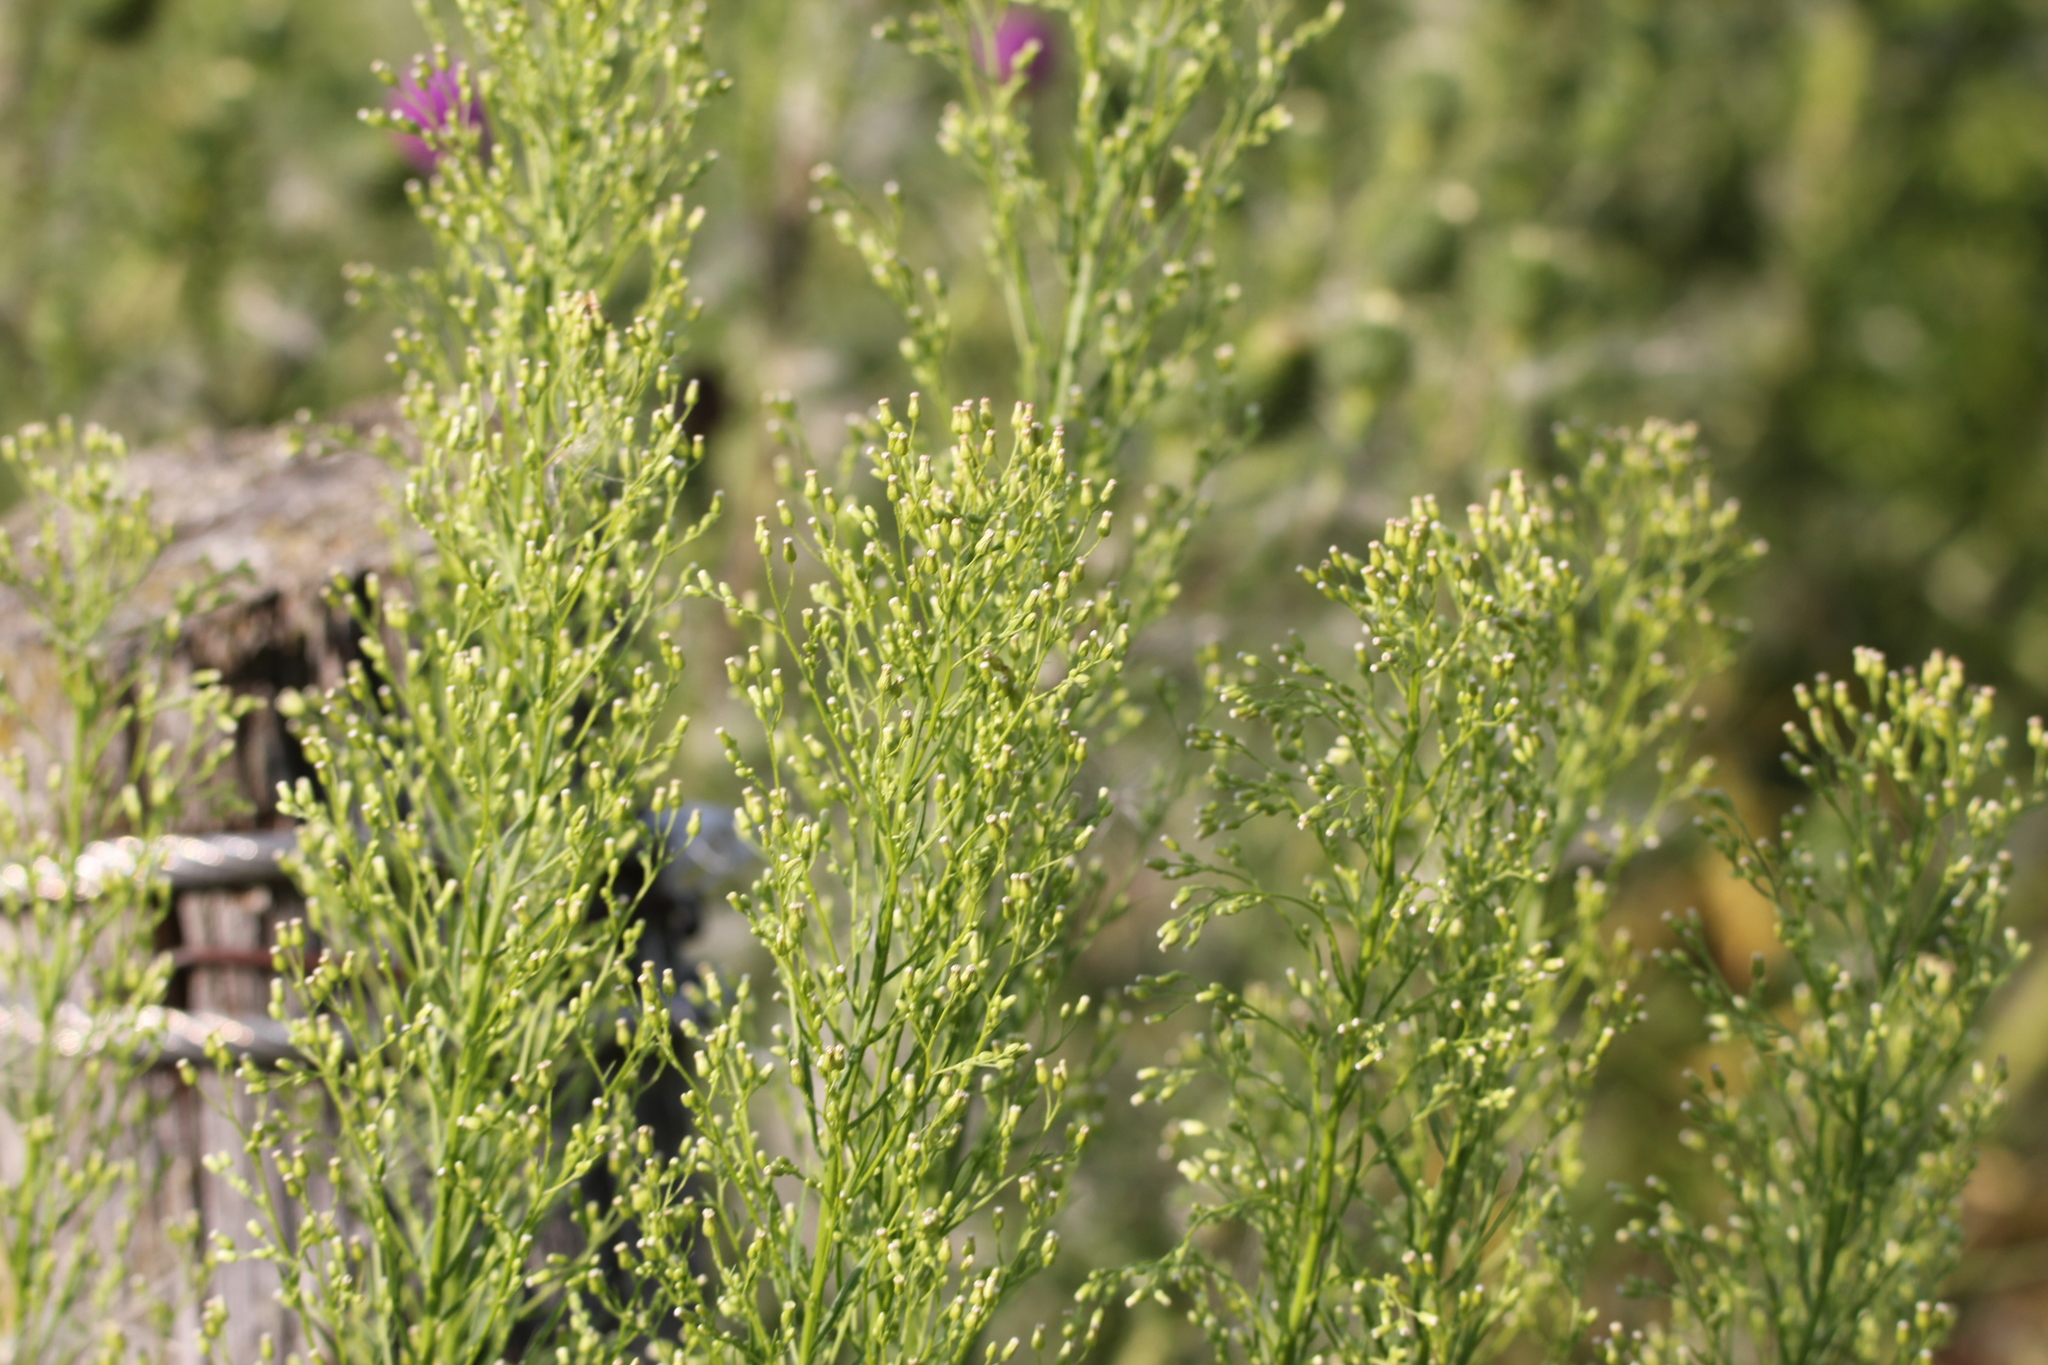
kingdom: Plantae
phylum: Tracheophyta
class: Magnoliopsida
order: Asterales
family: Asteraceae
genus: Erigeron
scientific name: Erigeron canadensis
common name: Canadian fleabane
